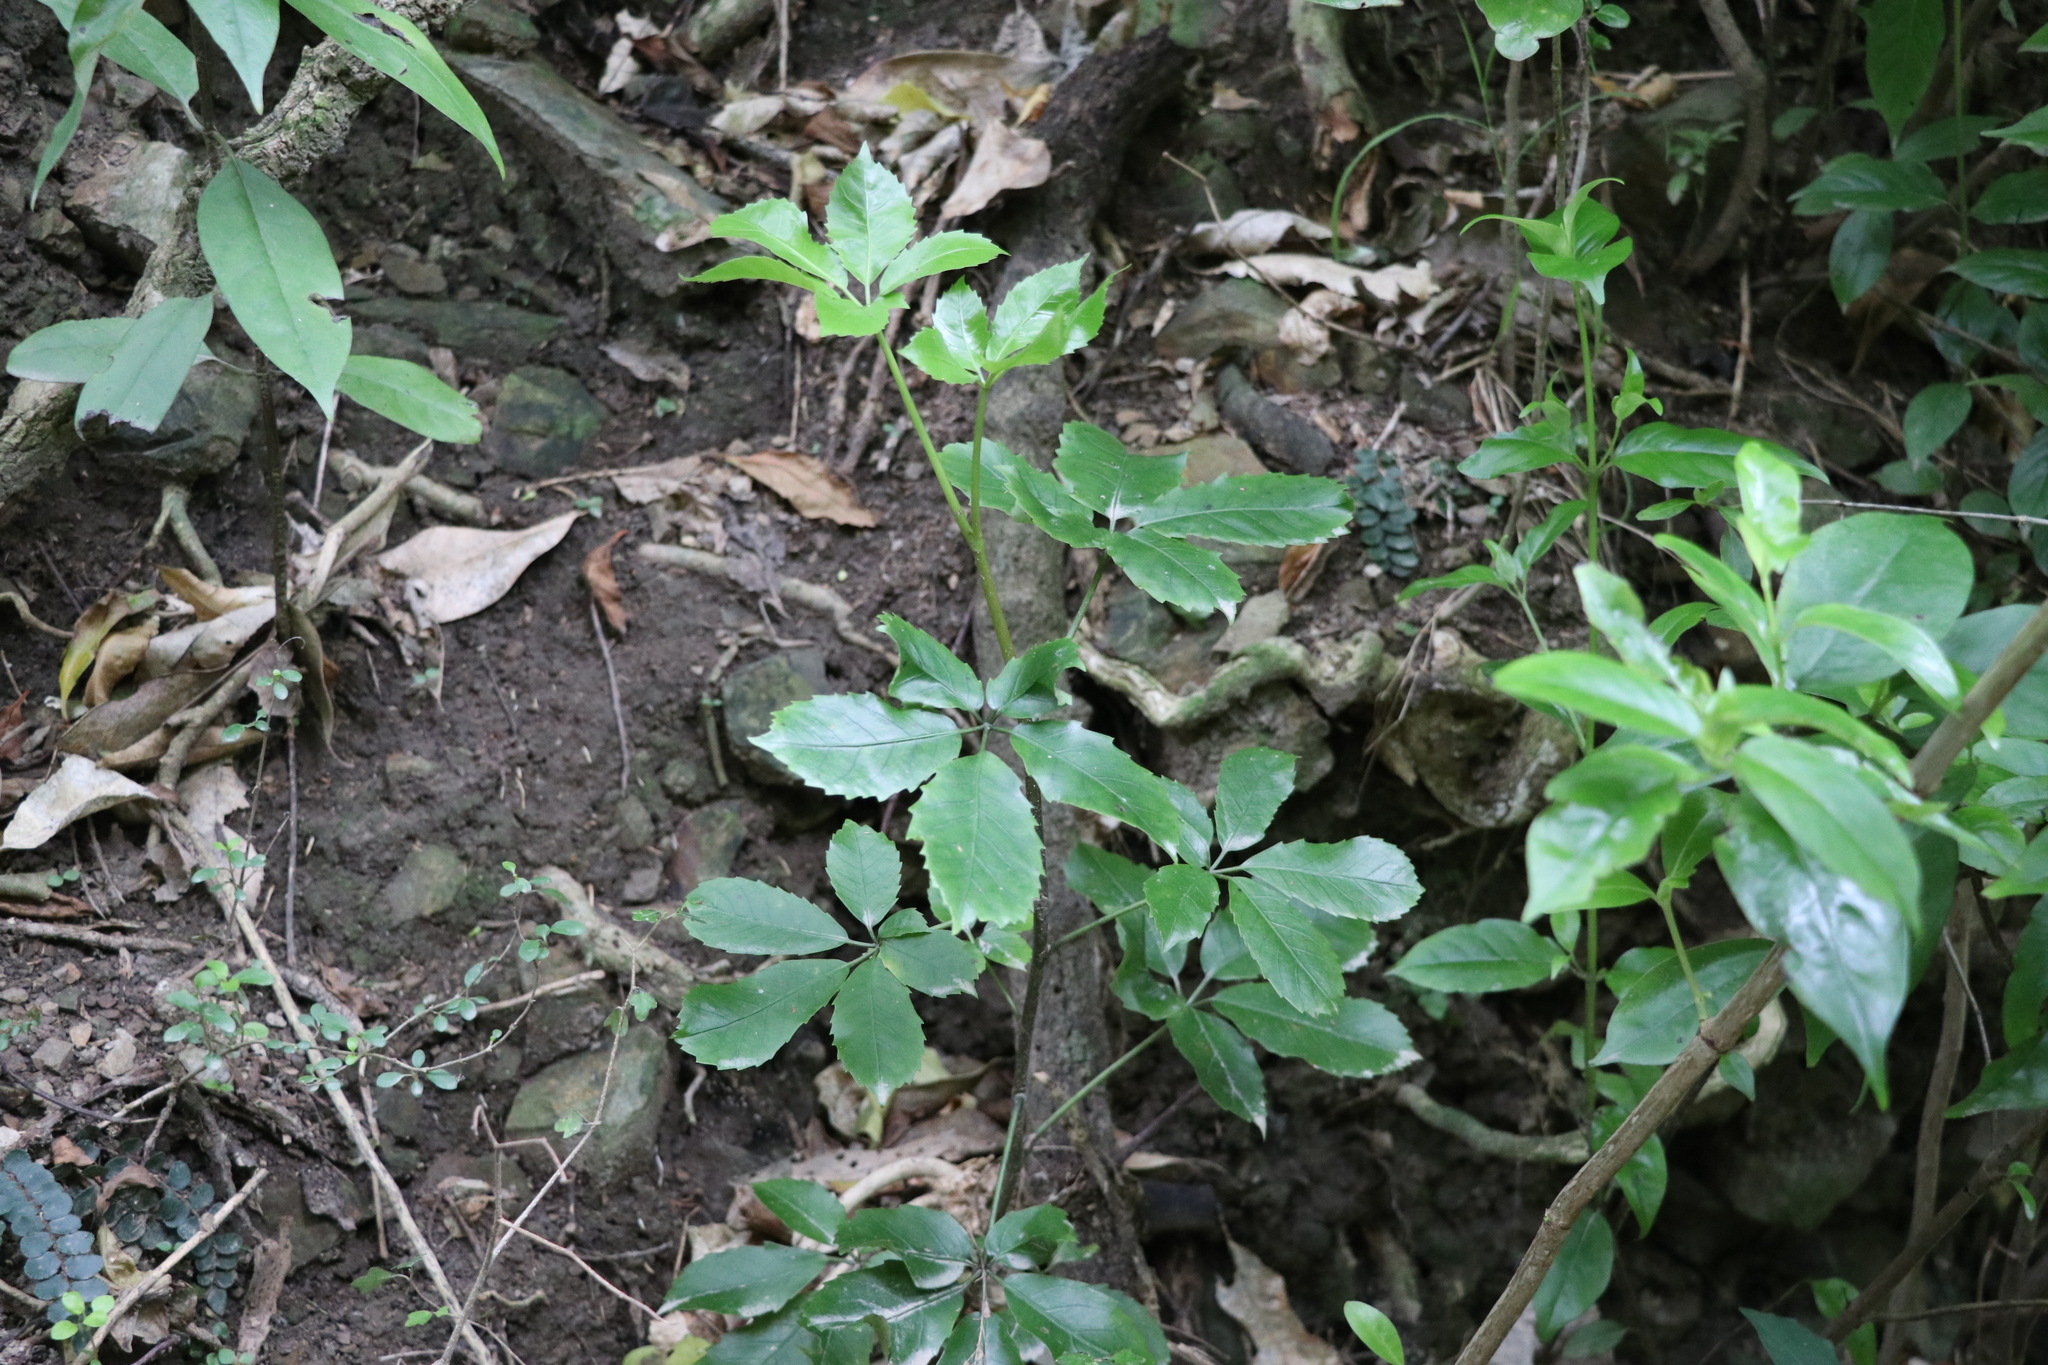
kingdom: Plantae
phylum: Tracheophyta
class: Magnoliopsida
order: Apiales
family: Araliaceae
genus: Neopanax
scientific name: Neopanax arboreus
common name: Five-fingers
